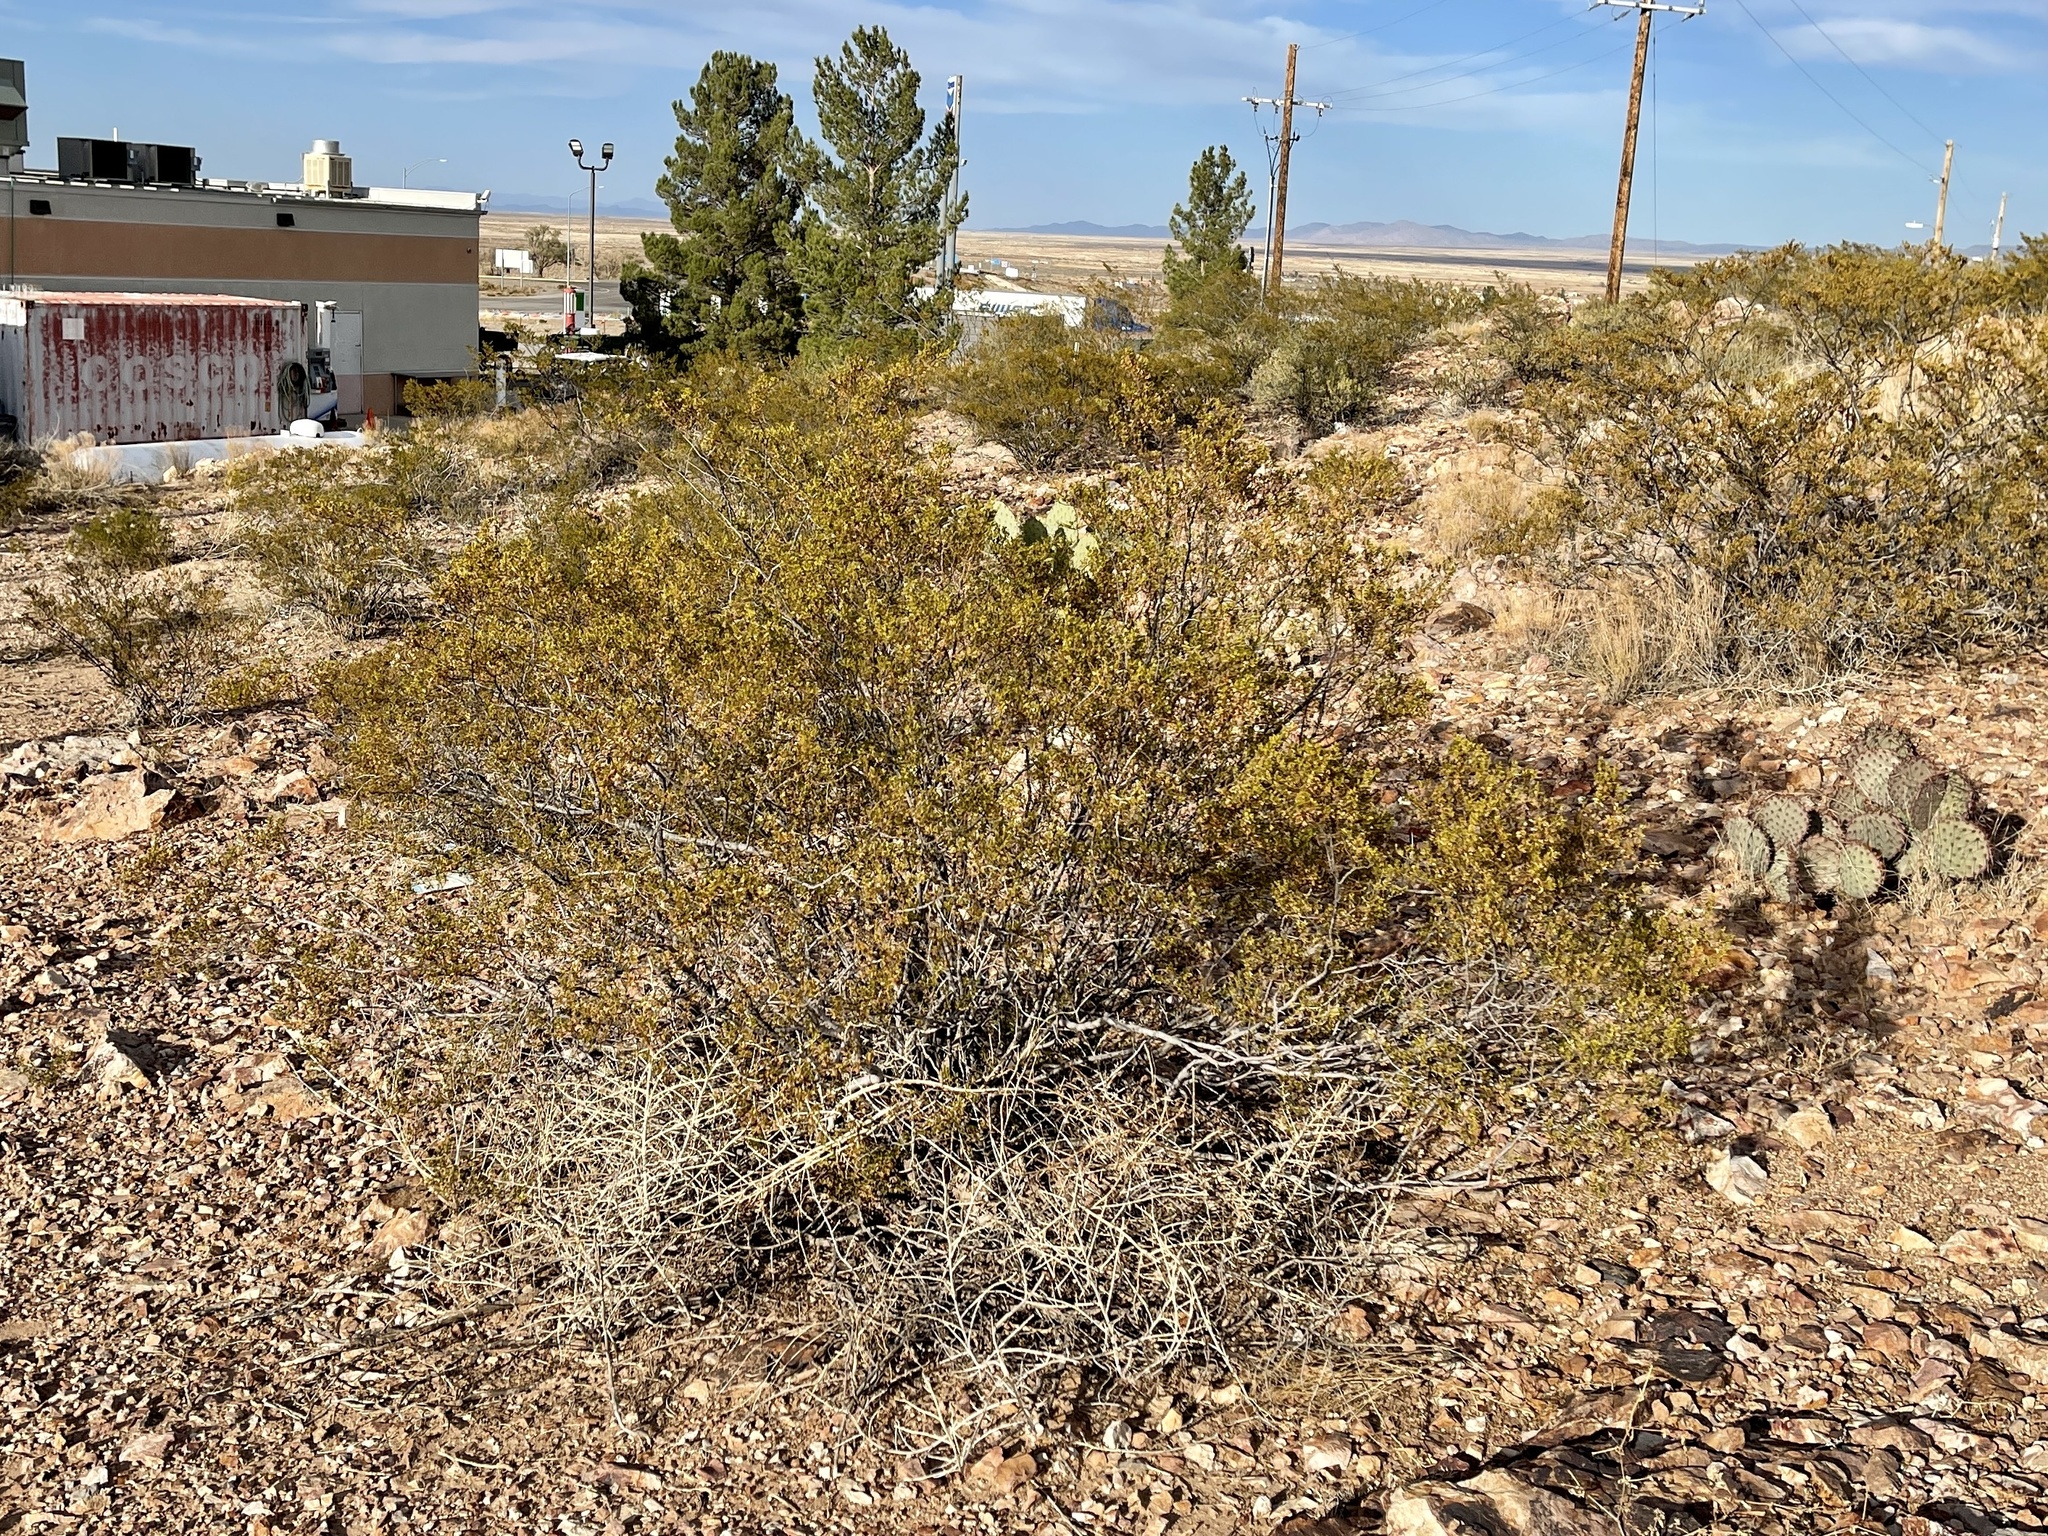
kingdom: Plantae
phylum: Tracheophyta
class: Magnoliopsida
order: Zygophyllales
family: Zygophyllaceae
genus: Larrea
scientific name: Larrea tridentata
